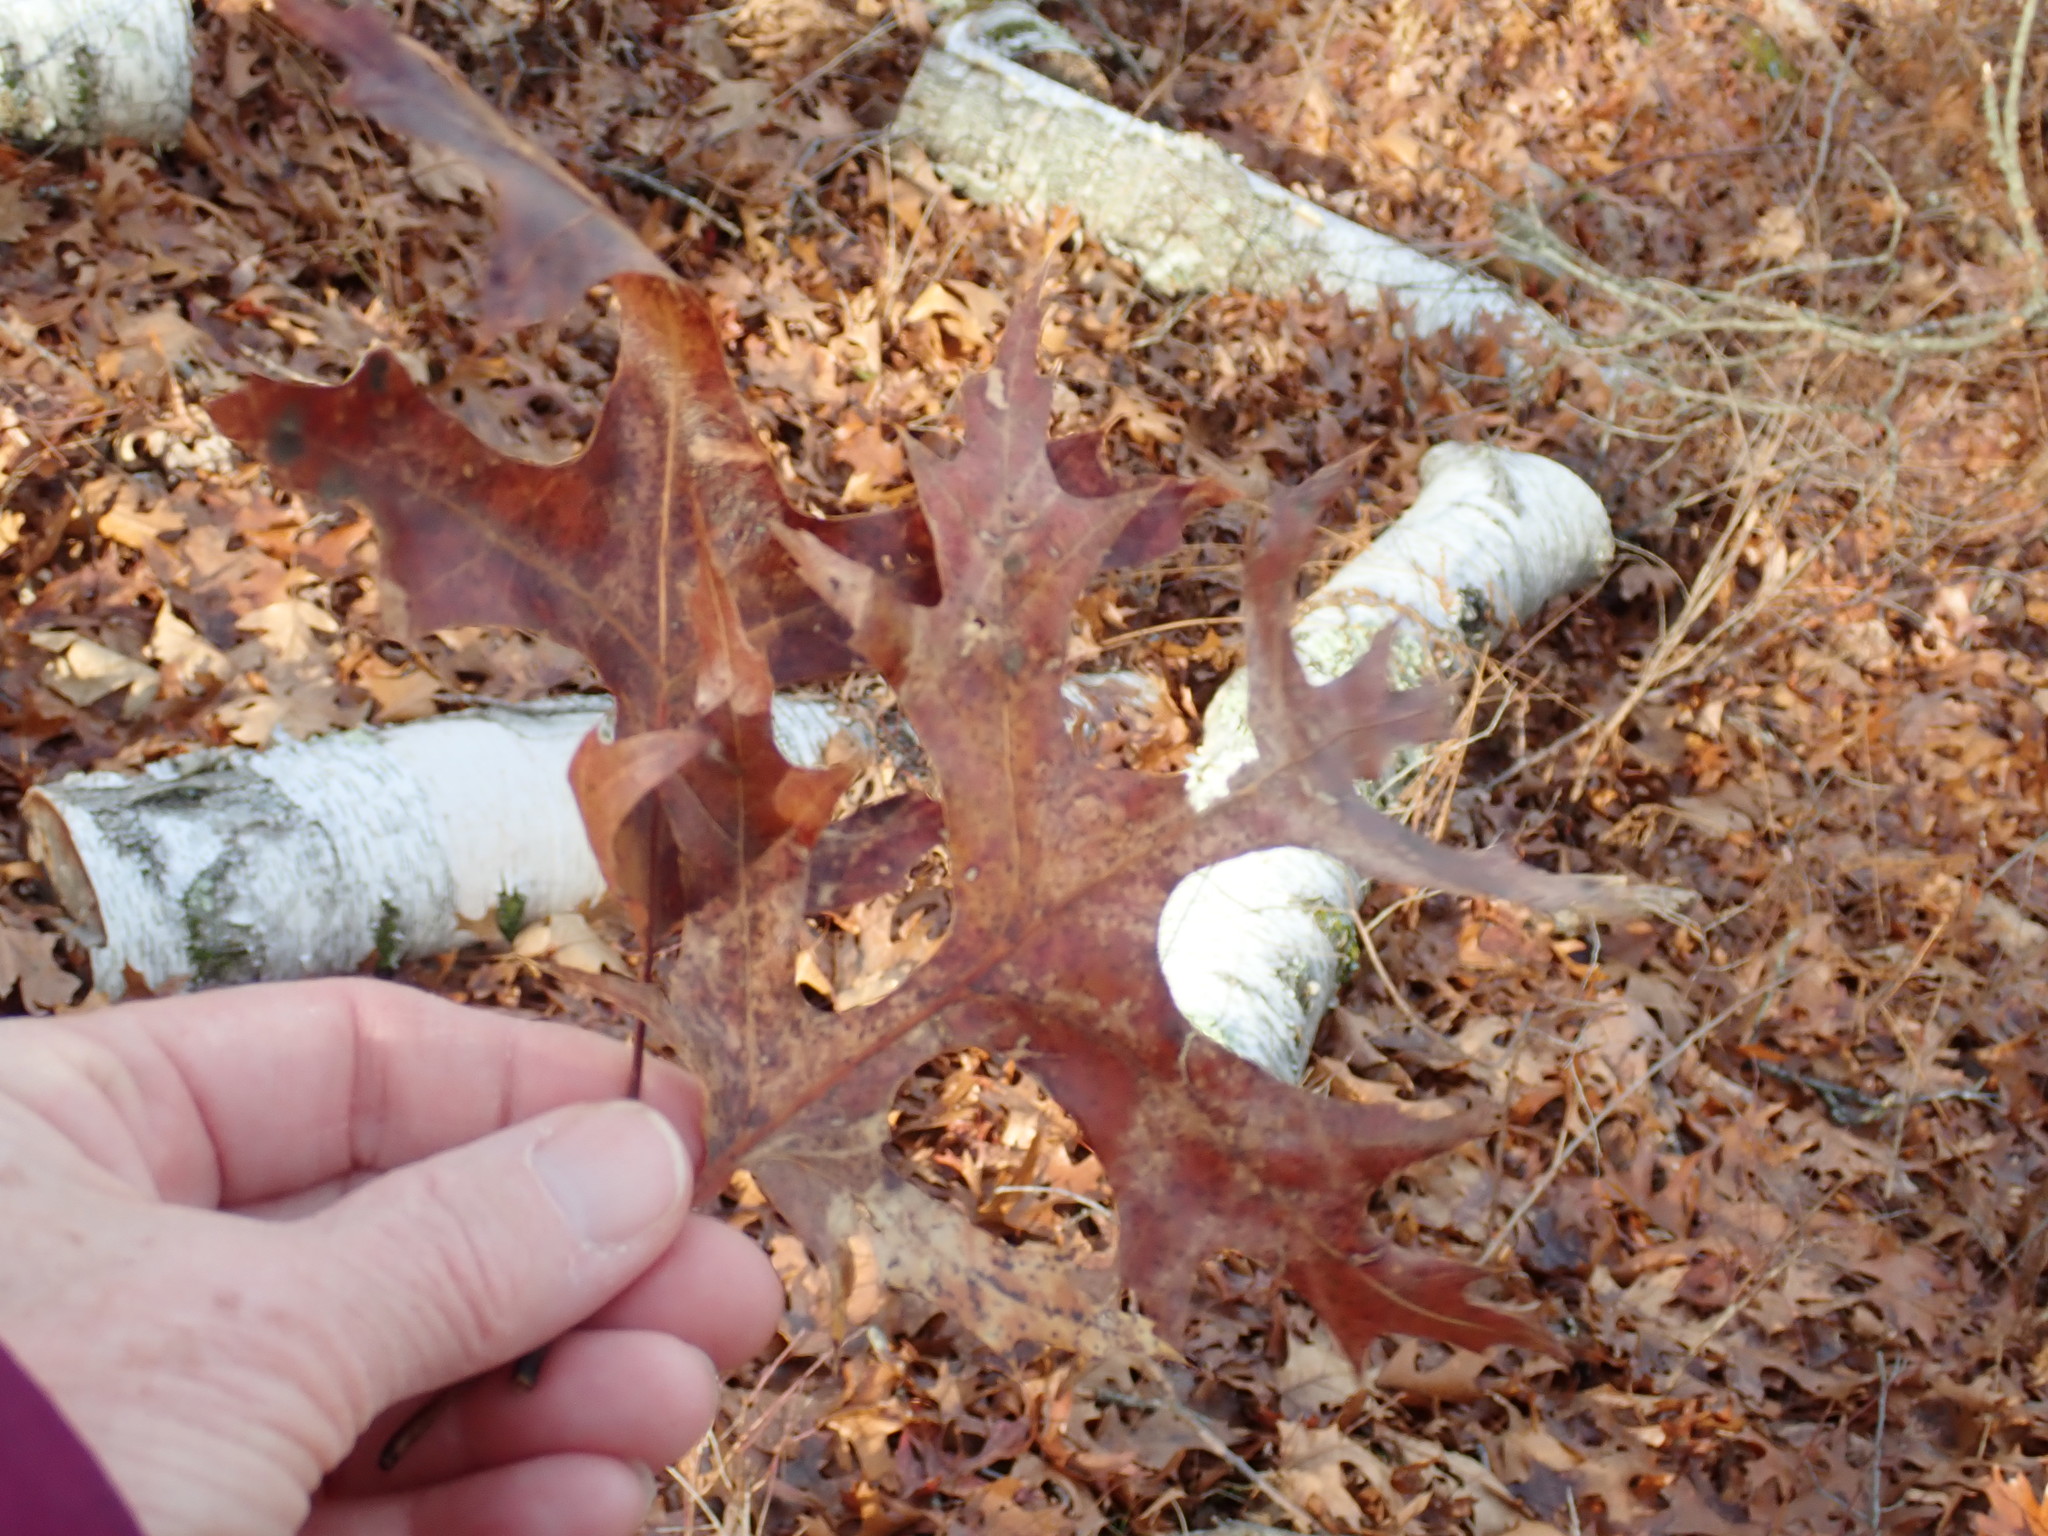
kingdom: Plantae
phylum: Tracheophyta
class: Magnoliopsida
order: Fagales
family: Fagaceae
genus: Quercus
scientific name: Quercus coccinea
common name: Scarlet oak
